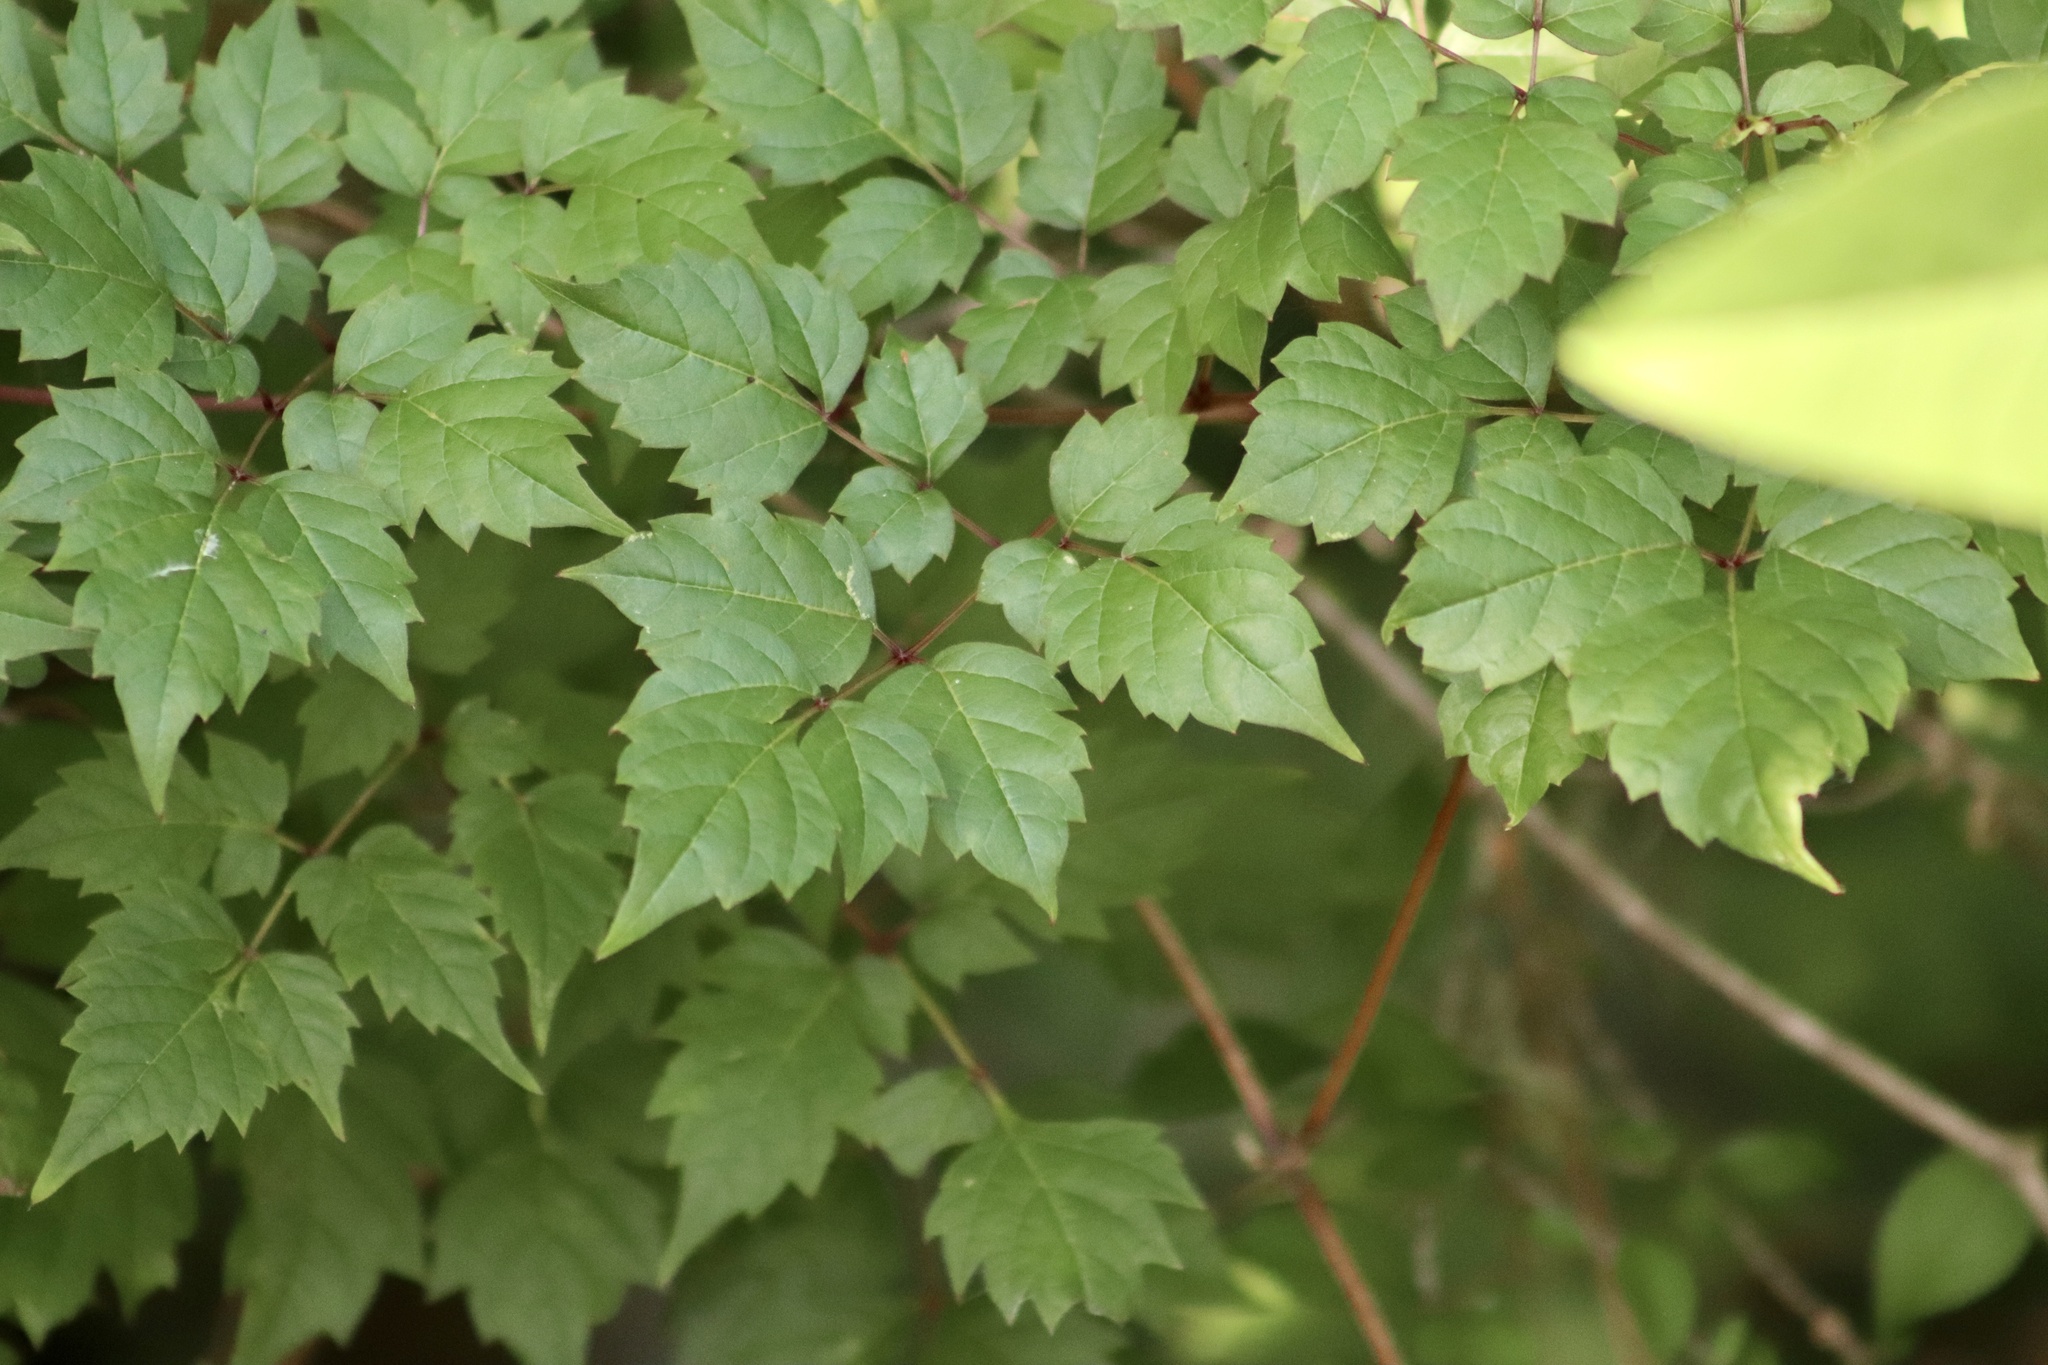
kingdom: Plantae
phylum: Tracheophyta
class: Magnoliopsida
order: Vitales
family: Vitaceae
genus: Nekemias
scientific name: Nekemias arborea
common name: Peppervine
